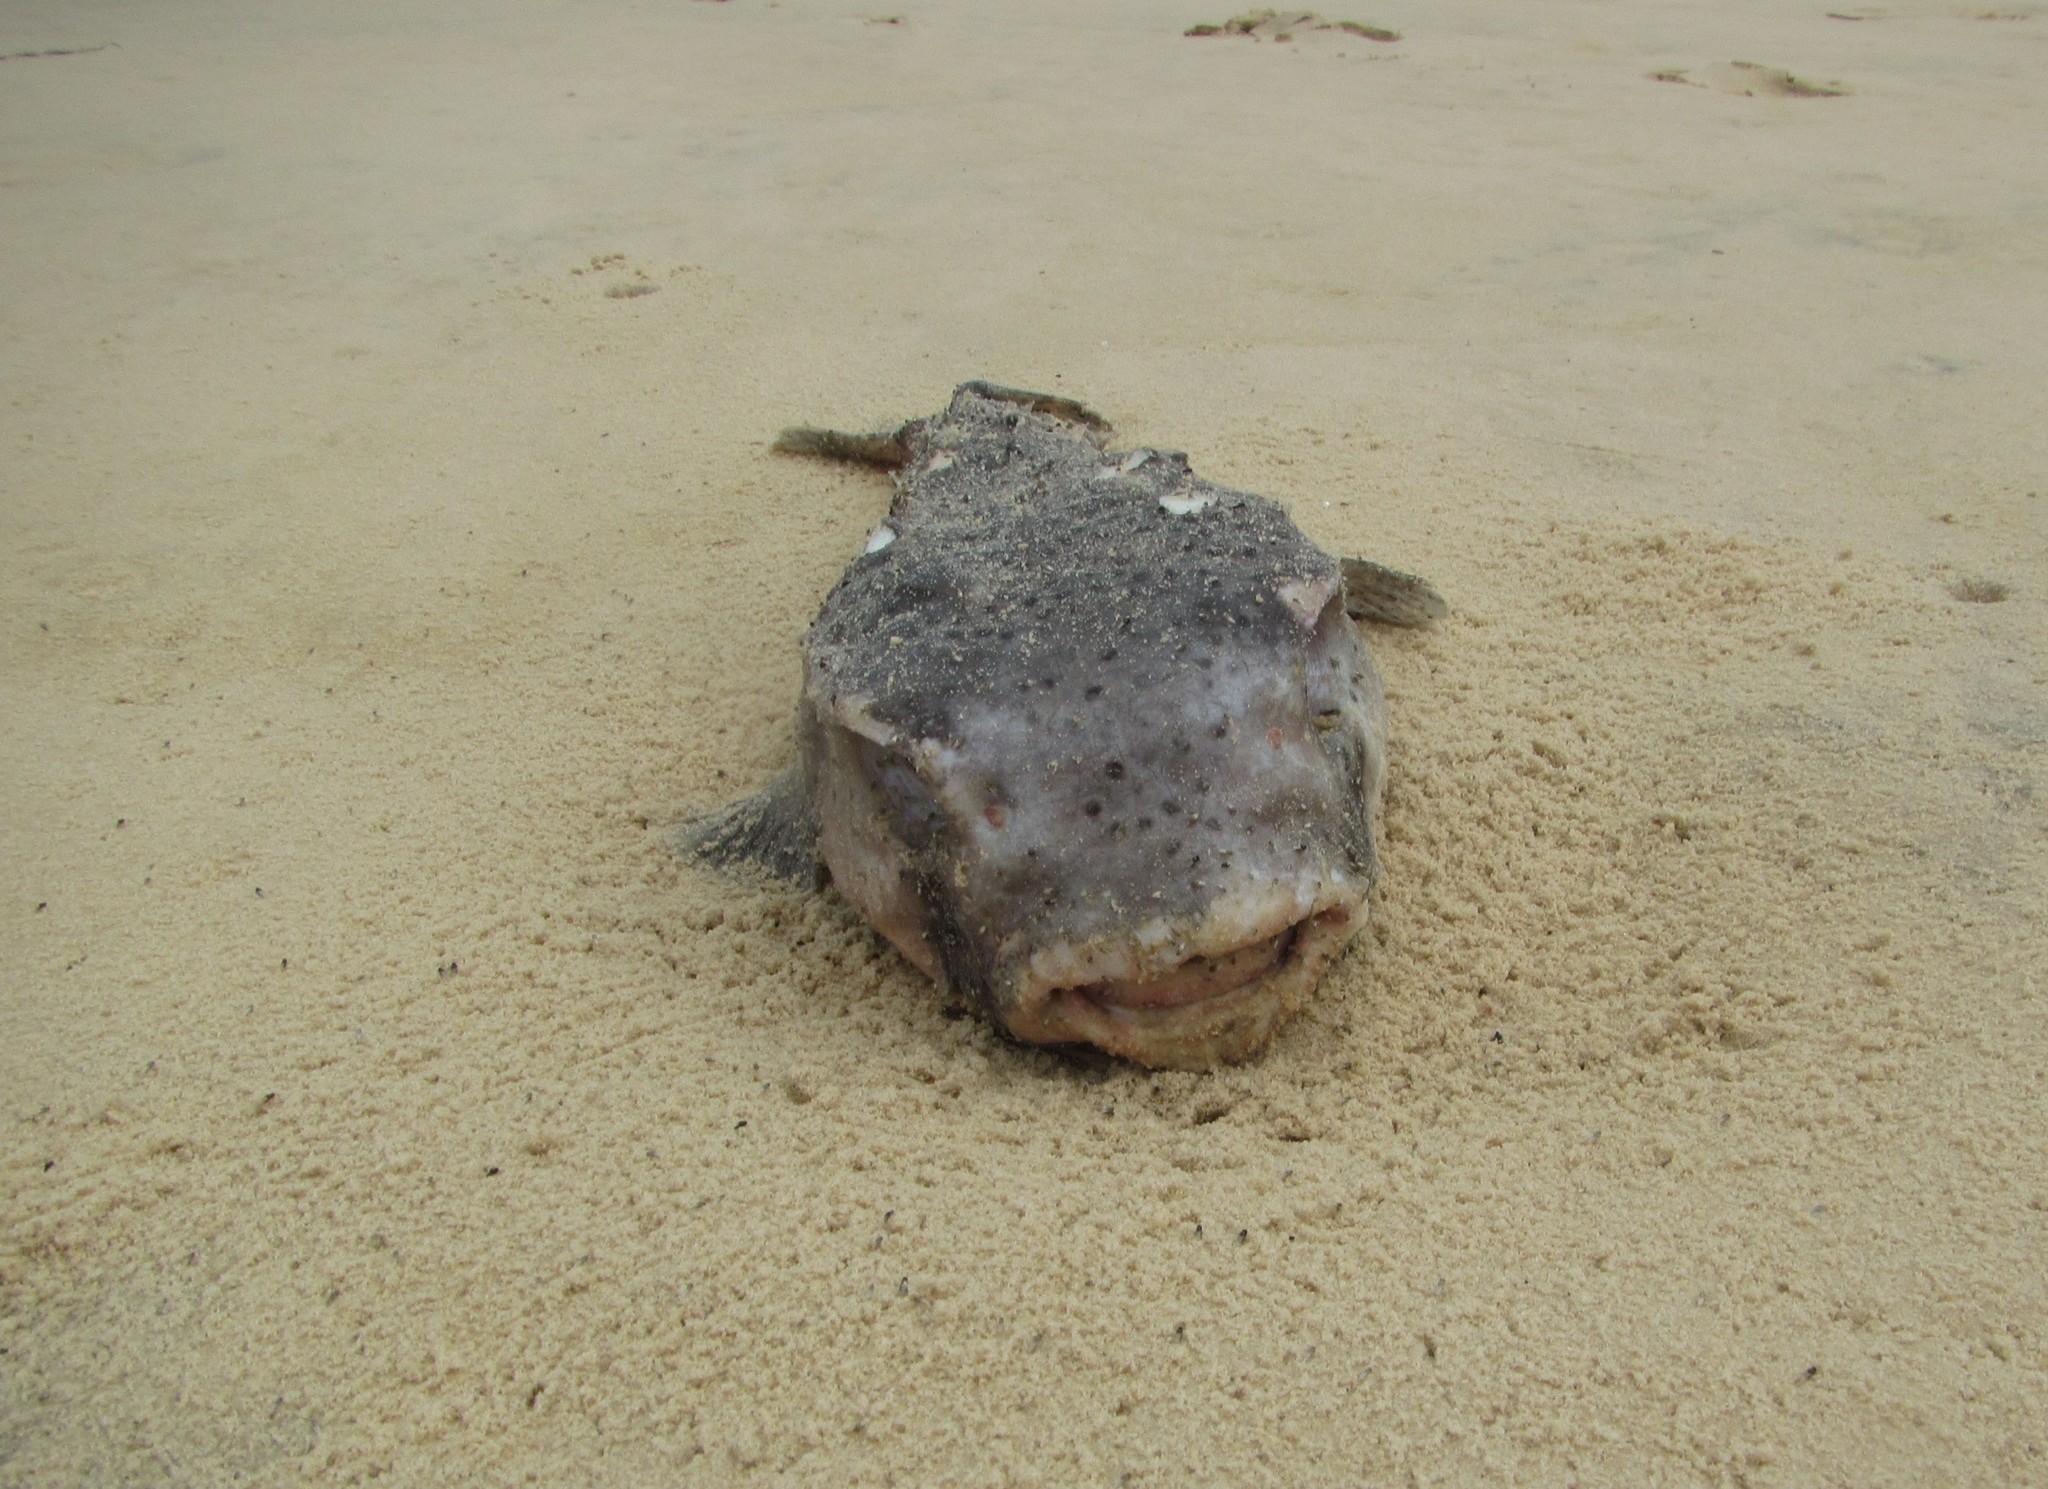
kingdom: Animalia
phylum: Chordata
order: Tetraodontiformes
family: Diodontidae
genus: Chilomycterus
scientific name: Chilomycterus reticulatus
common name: Spotfin burrfish
